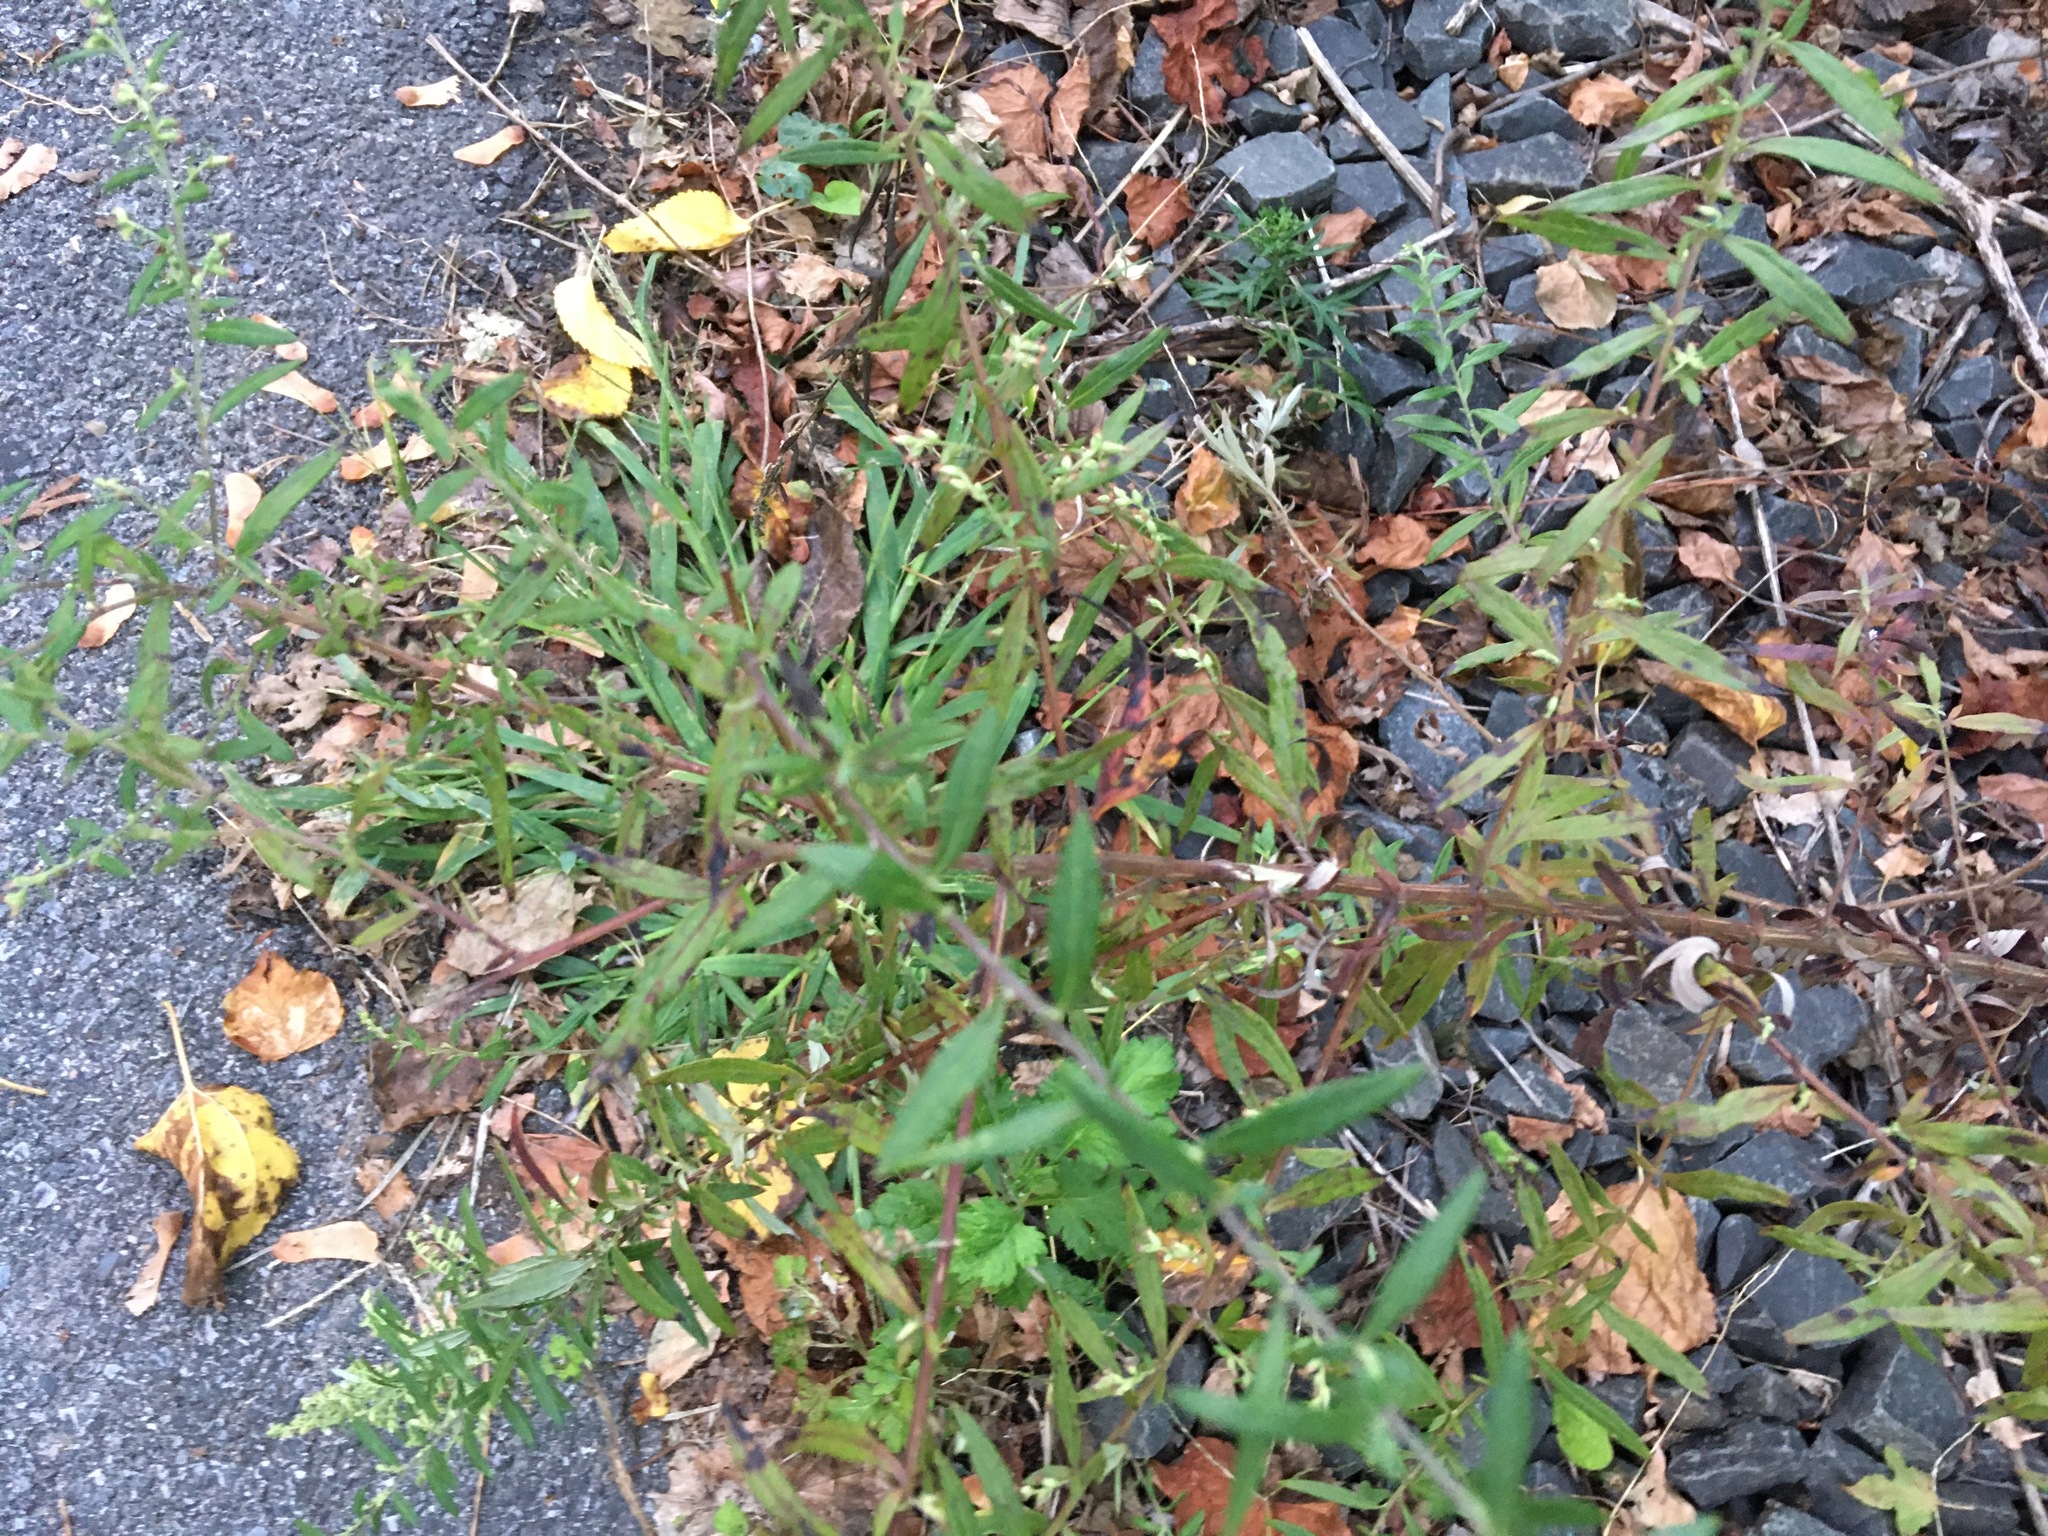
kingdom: Plantae
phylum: Tracheophyta
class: Magnoliopsida
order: Asterales
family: Asteraceae
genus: Artemisia
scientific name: Artemisia vulgaris
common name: Mugwort
